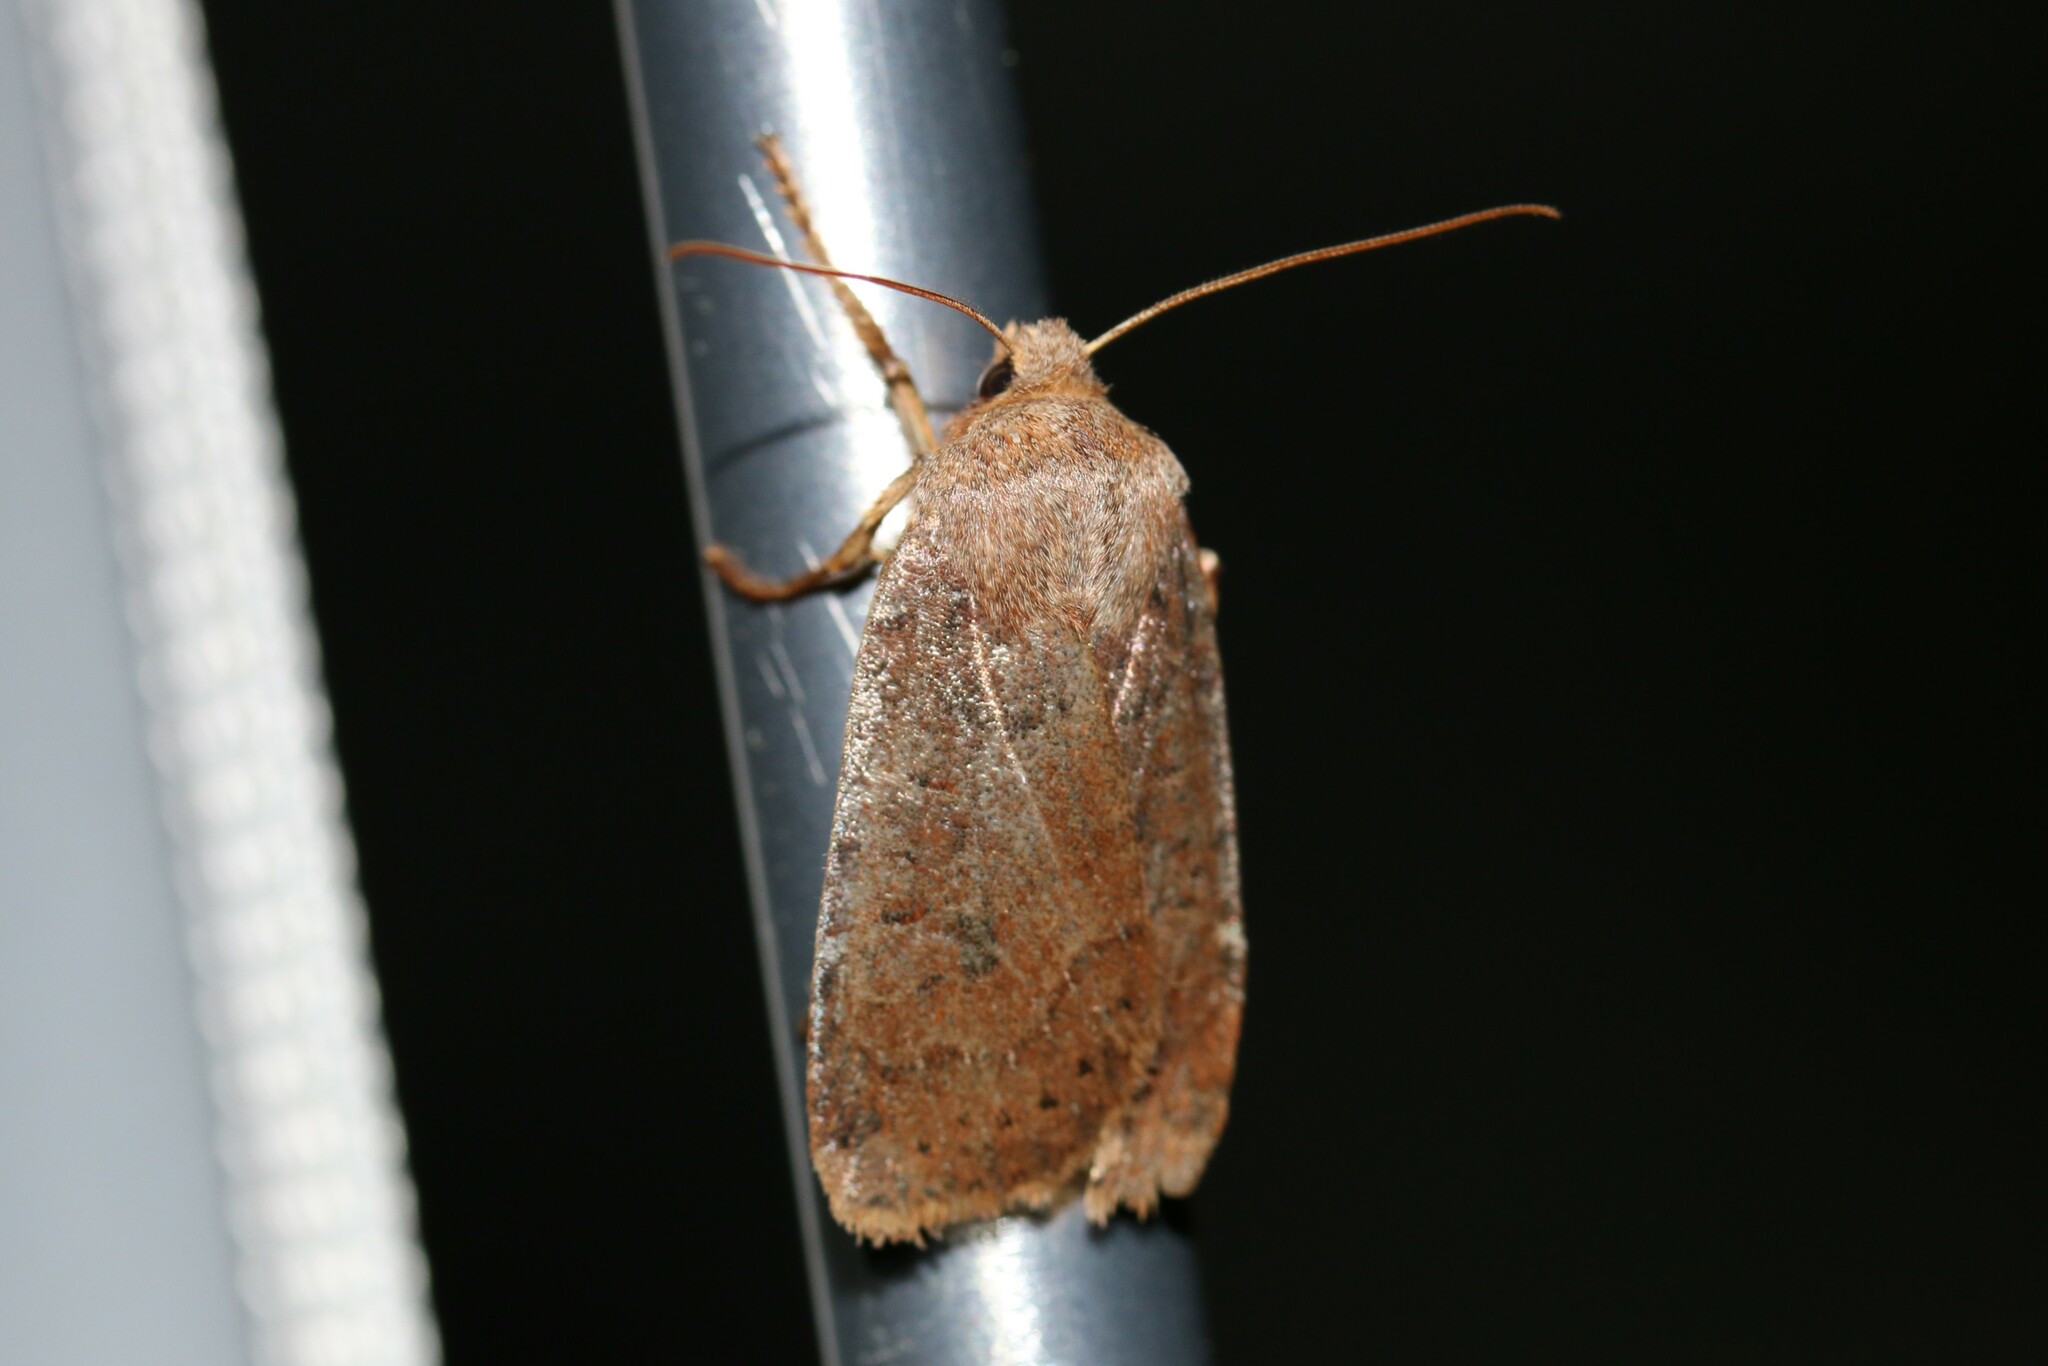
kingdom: Animalia
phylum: Arthropoda
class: Insecta
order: Lepidoptera
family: Noctuidae
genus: Conistra
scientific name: Conistra vaccinii
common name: Chestnut
